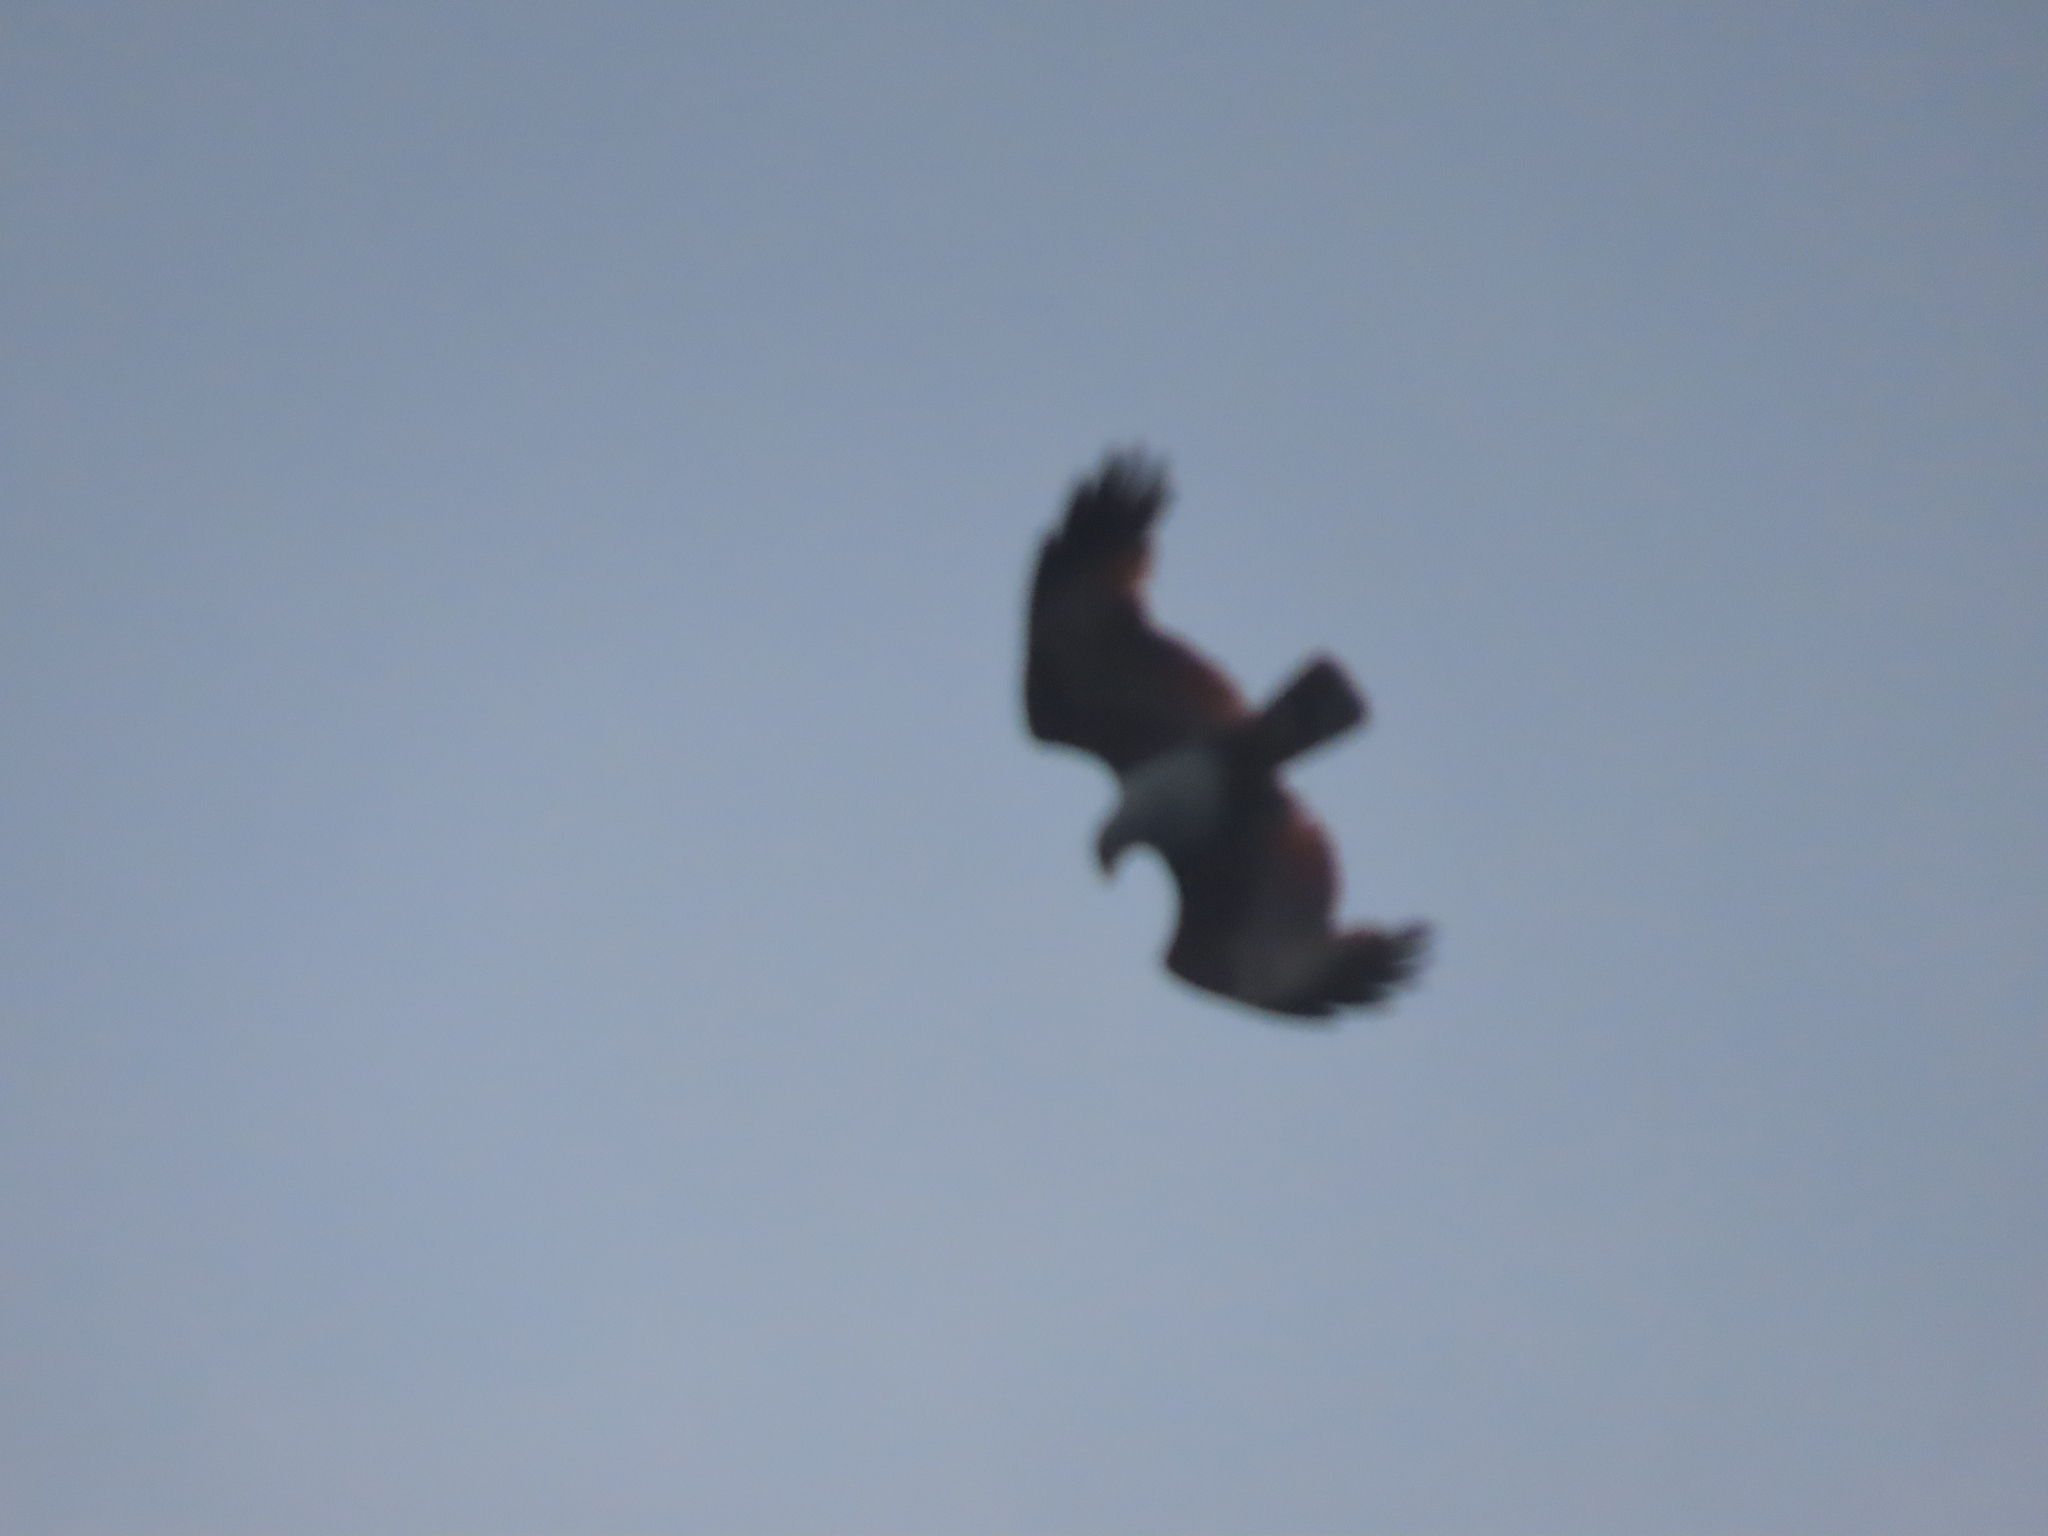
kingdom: Animalia
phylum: Chordata
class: Aves
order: Accipitriformes
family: Accipitridae
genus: Haliastur
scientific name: Haliastur indus
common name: Brahminy kite
